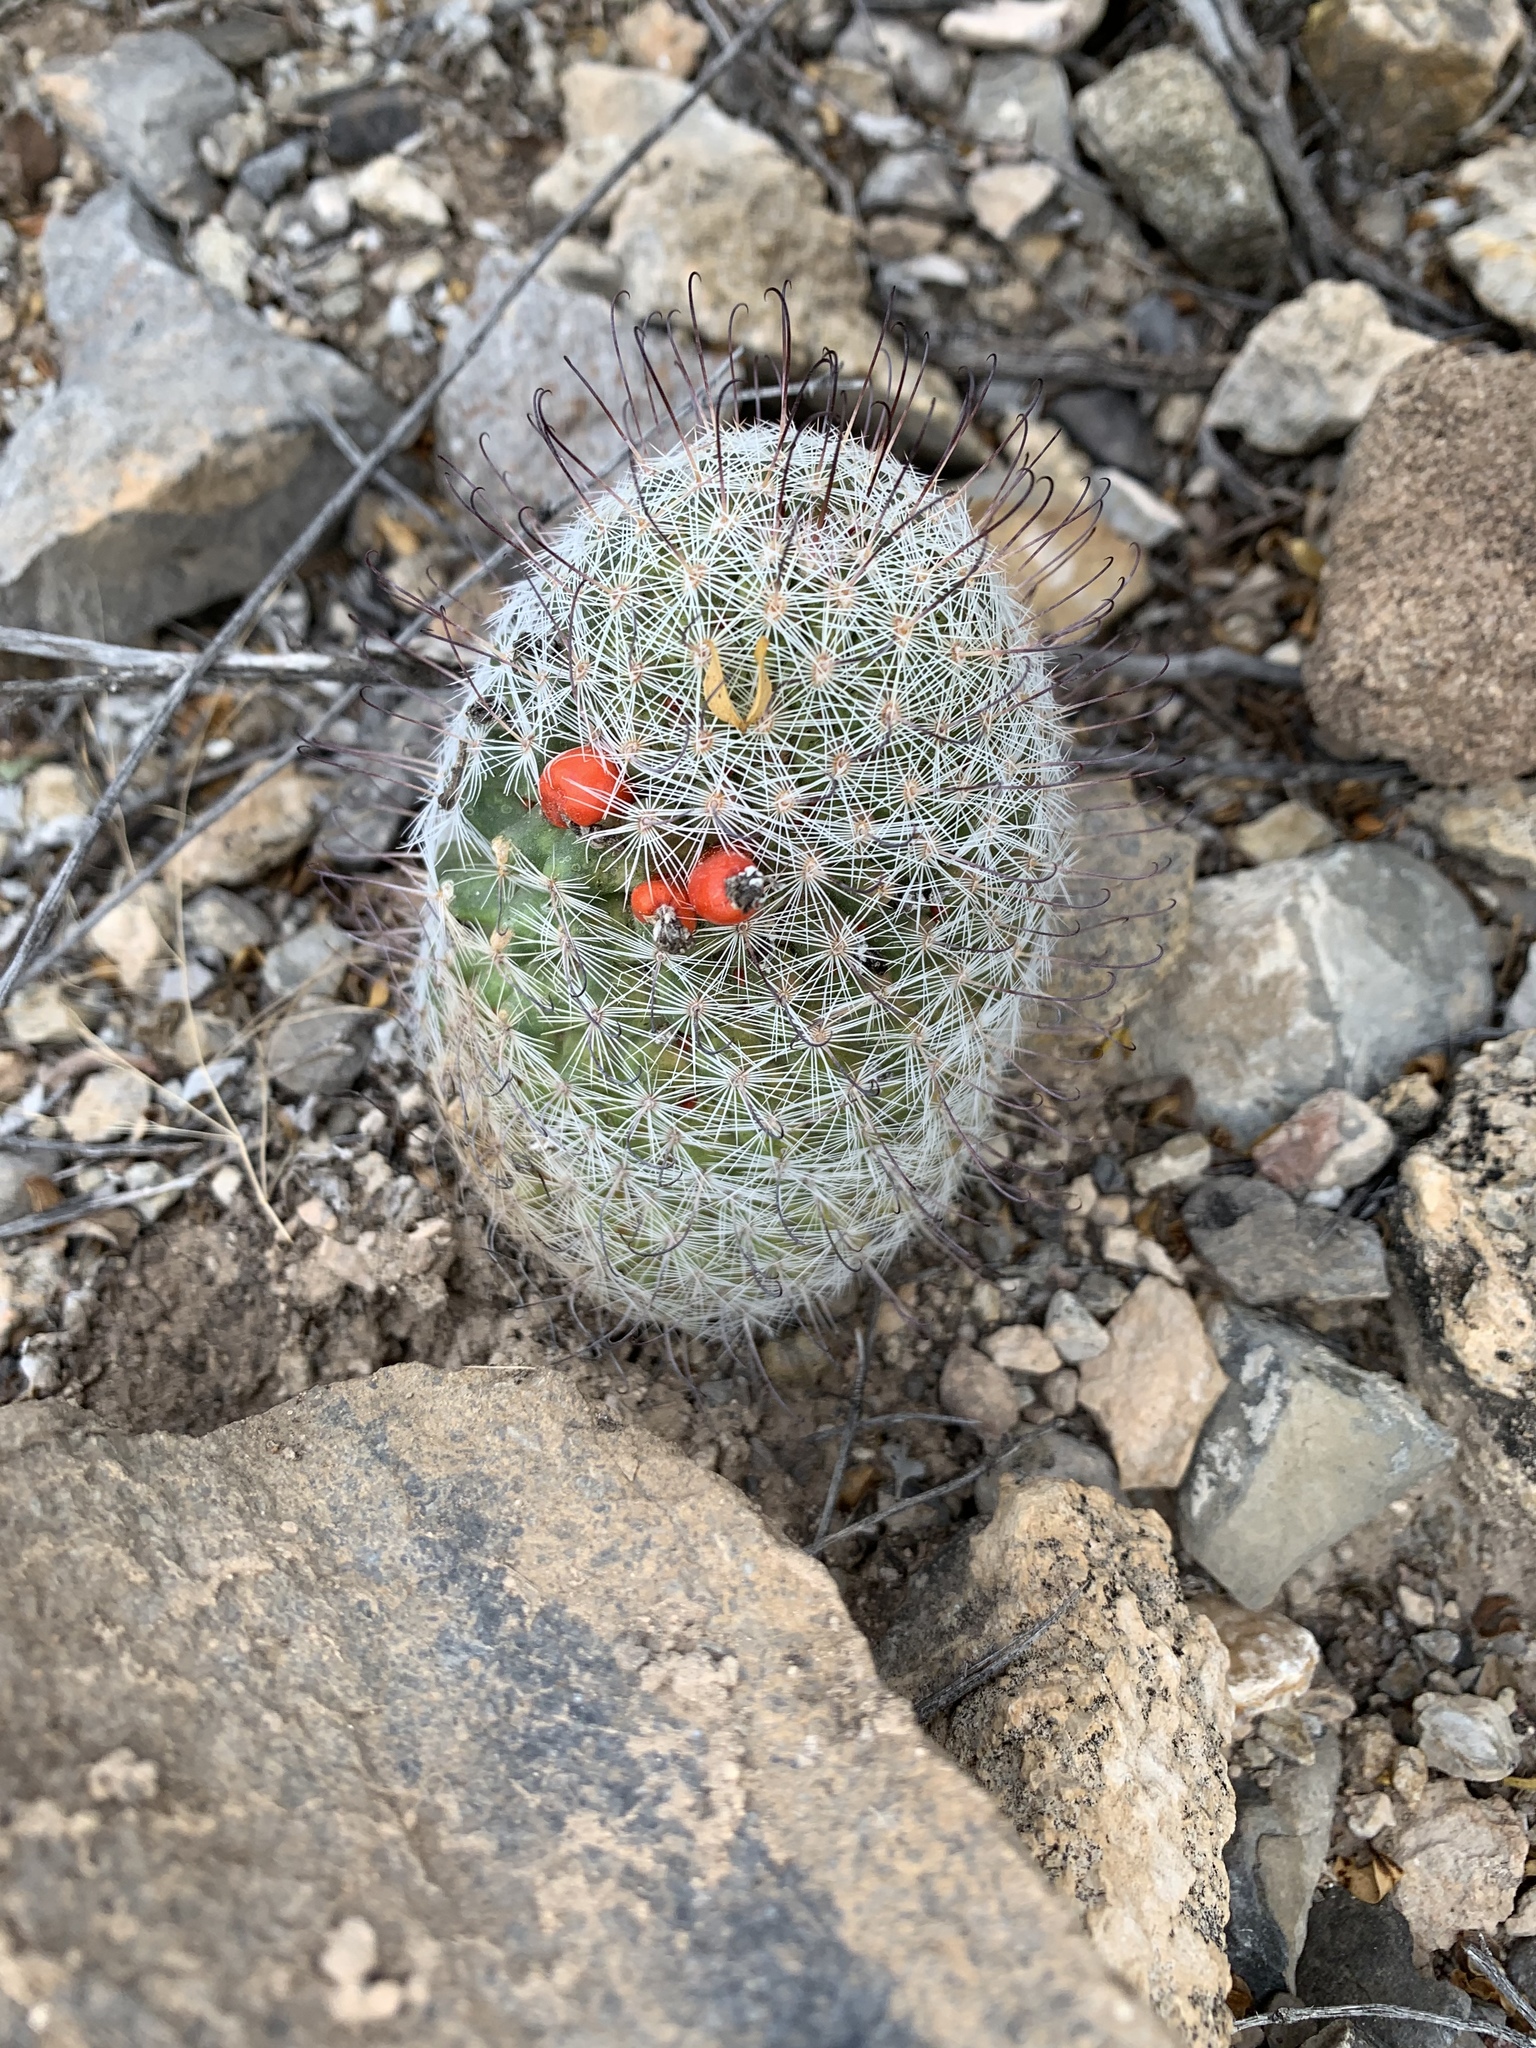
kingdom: Plantae
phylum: Tracheophyta
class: Magnoliopsida
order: Caryophyllales
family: Cactaceae
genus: Cochemiea
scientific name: Cochemiea grahamii
